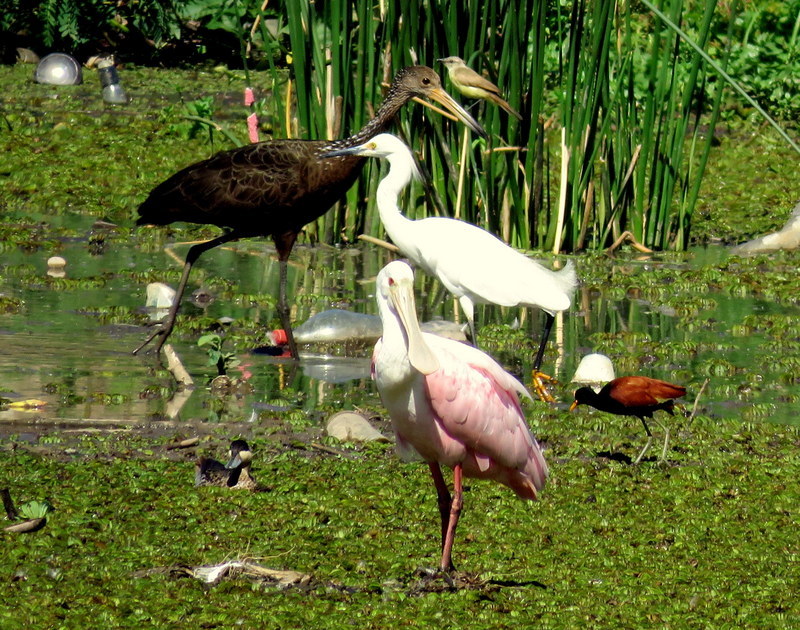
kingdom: Animalia
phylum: Chordata
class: Aves
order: Pelecaniformes
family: Threskiornithidae
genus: Platalea
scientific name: Platalea ajaja
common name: Roseate spoonbill
